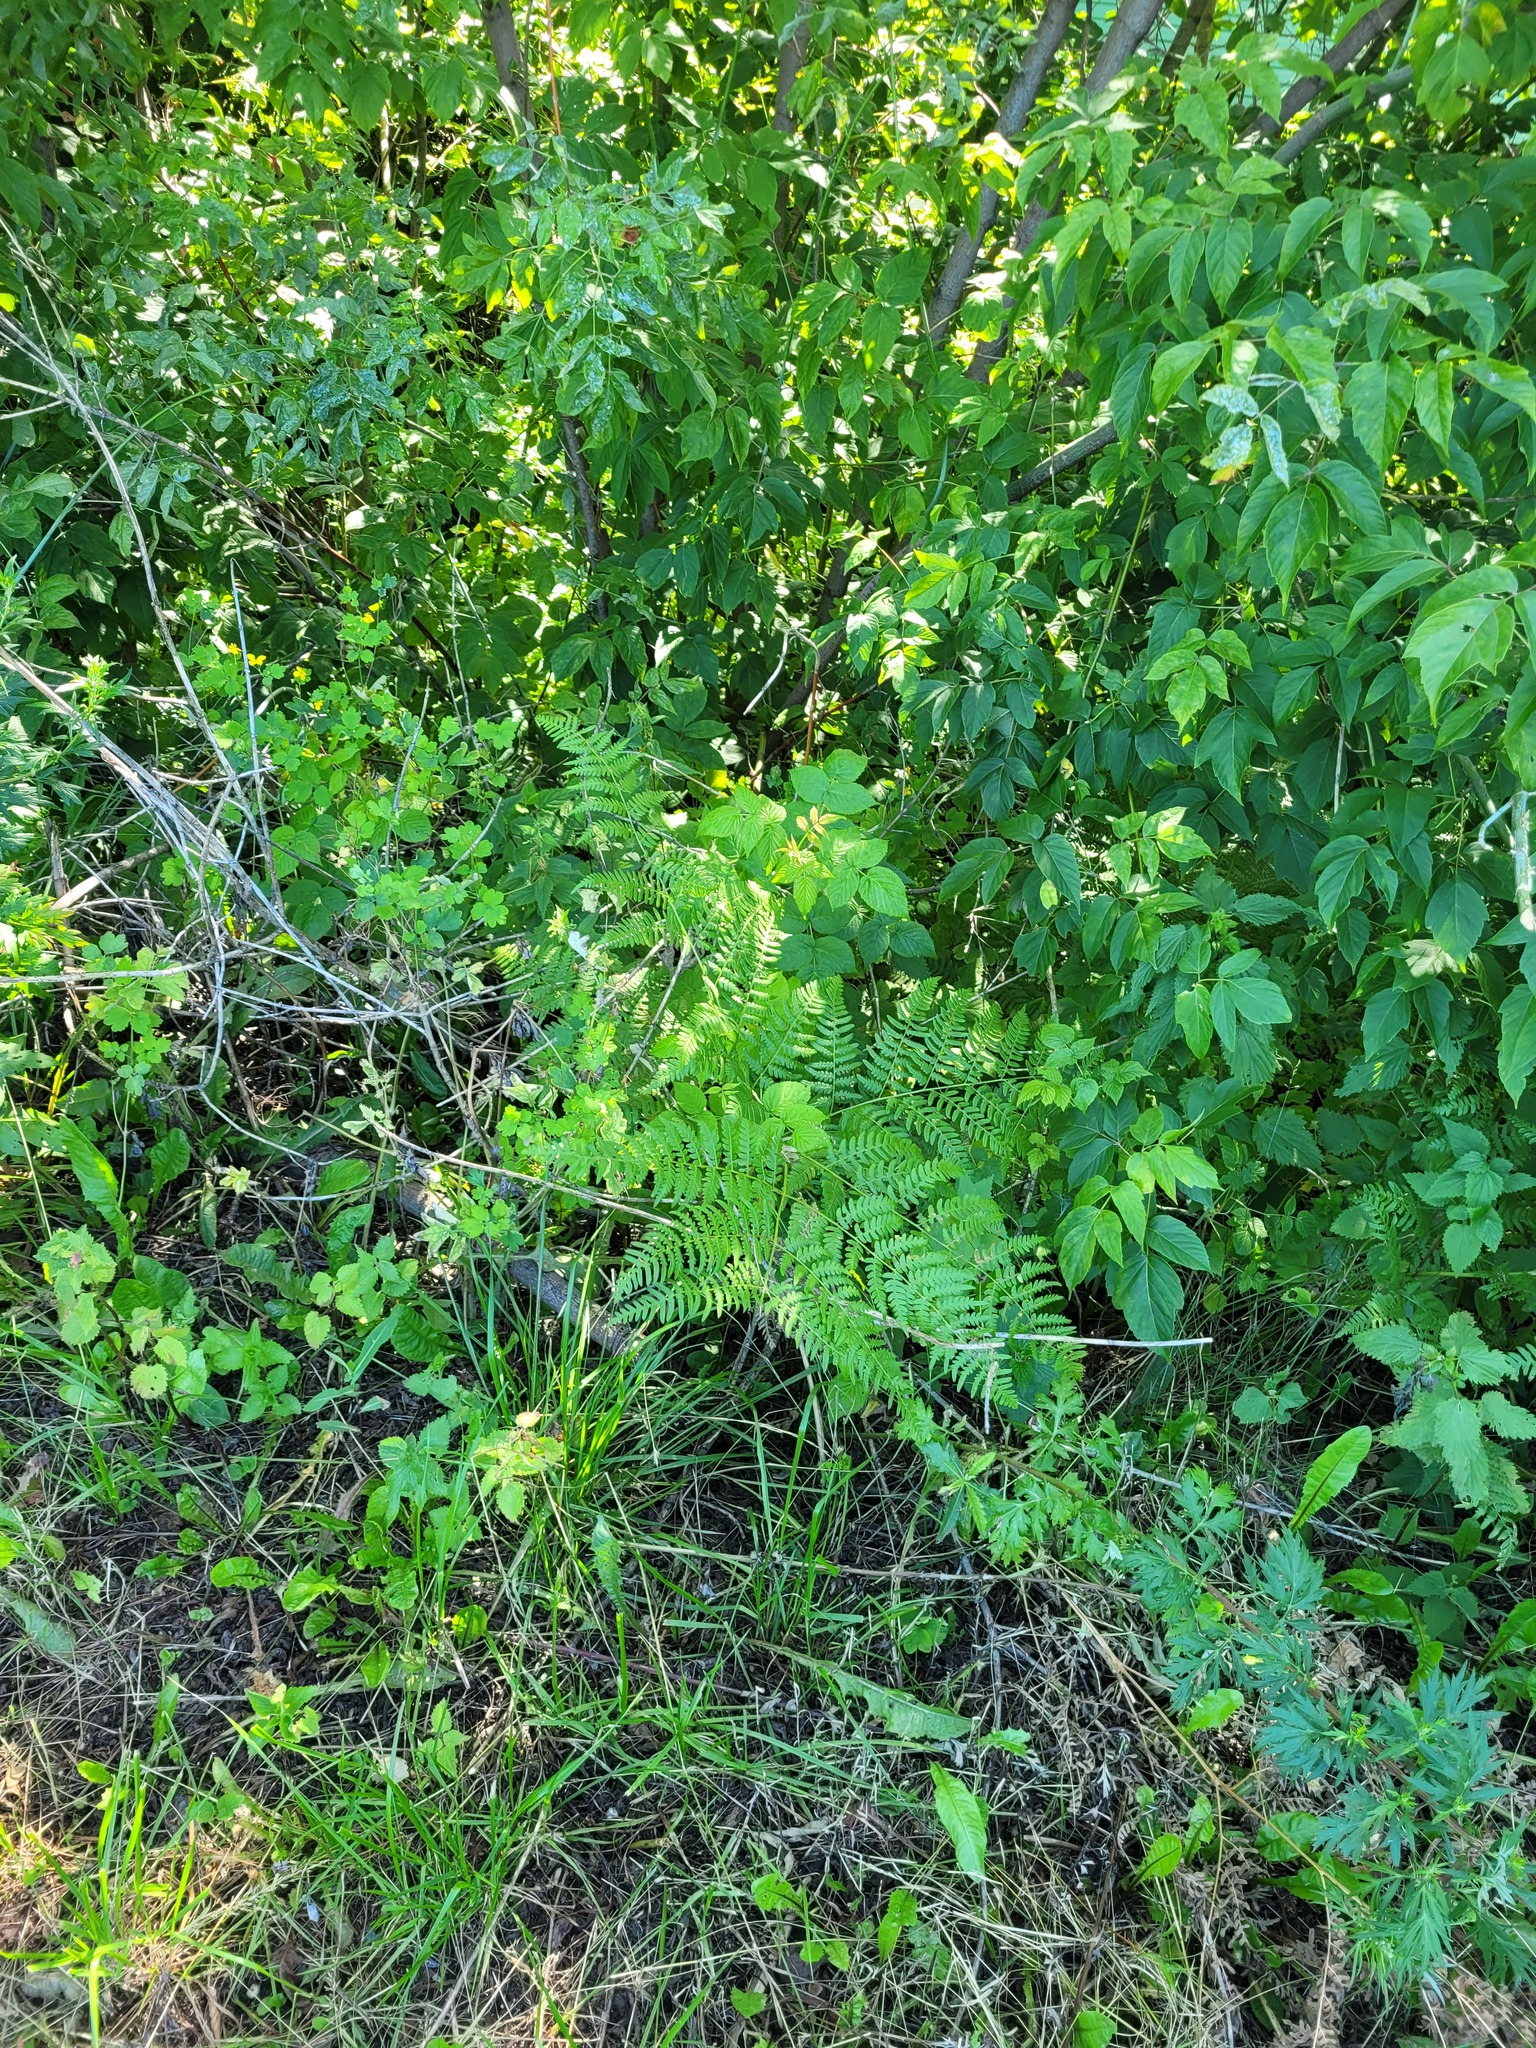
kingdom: Plantae
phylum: Tracheophyta
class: Polypodiopsida
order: Polypodiales
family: Dennstaedtiaceae
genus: Pteridium
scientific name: Pteridium aquilinum
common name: Bracken
